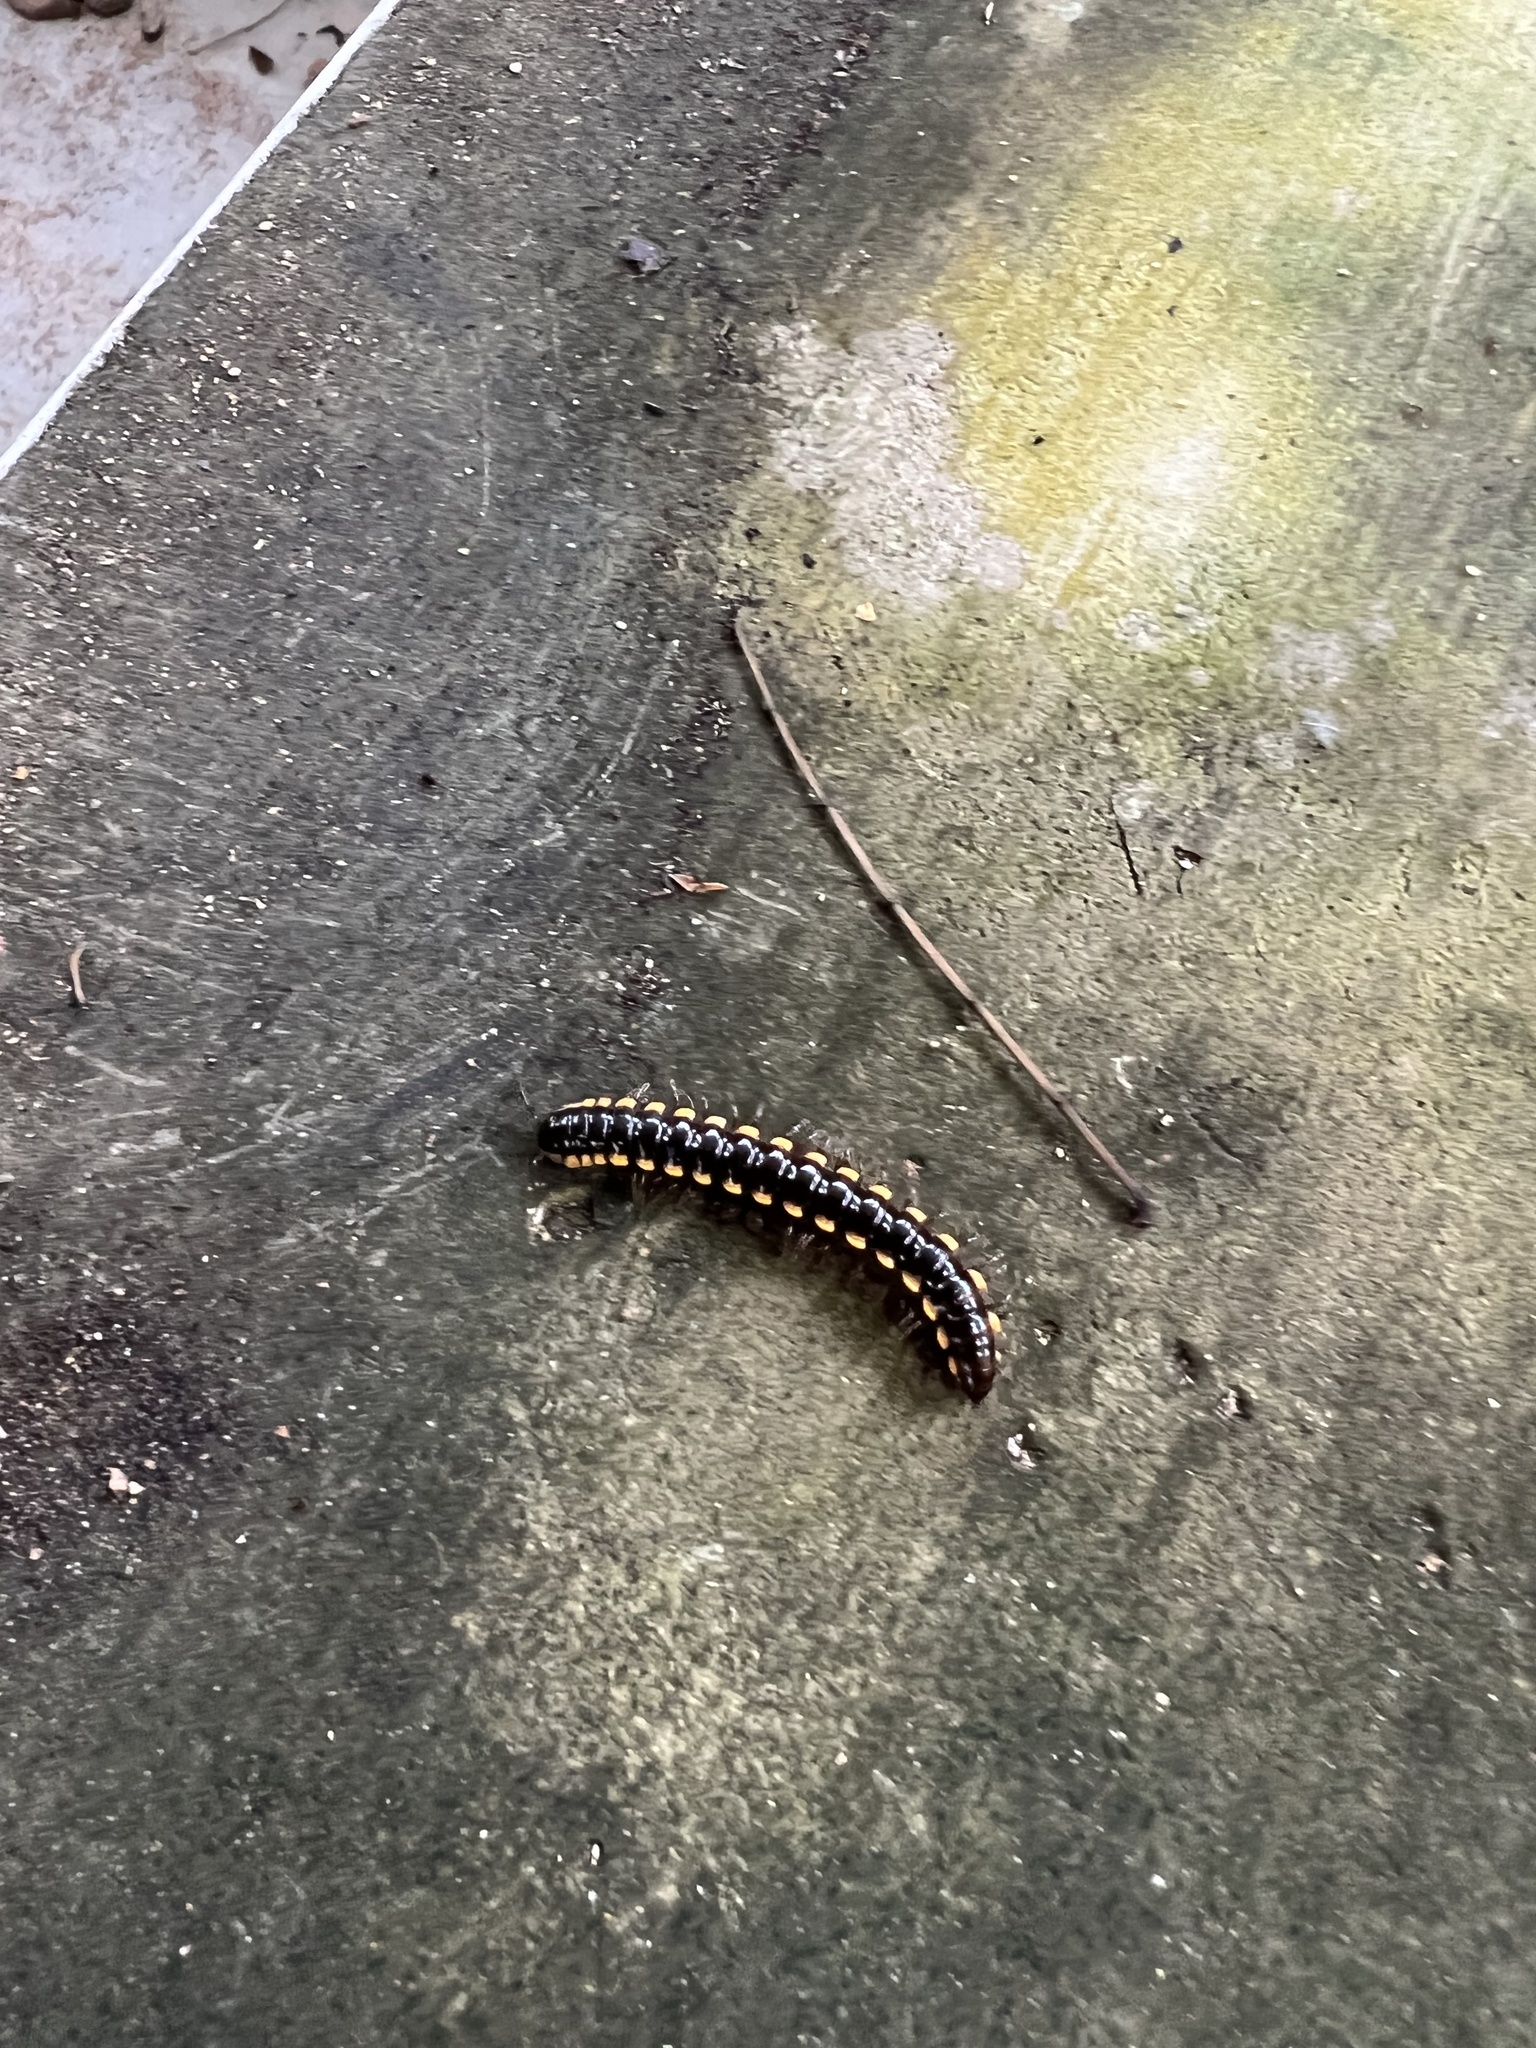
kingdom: Animalia
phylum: Arthropoda
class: Diplopoda
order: Polydesmida
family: Paradoxosomatidae
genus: Anoplodesmus
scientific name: Anoplodesmus saussurii
